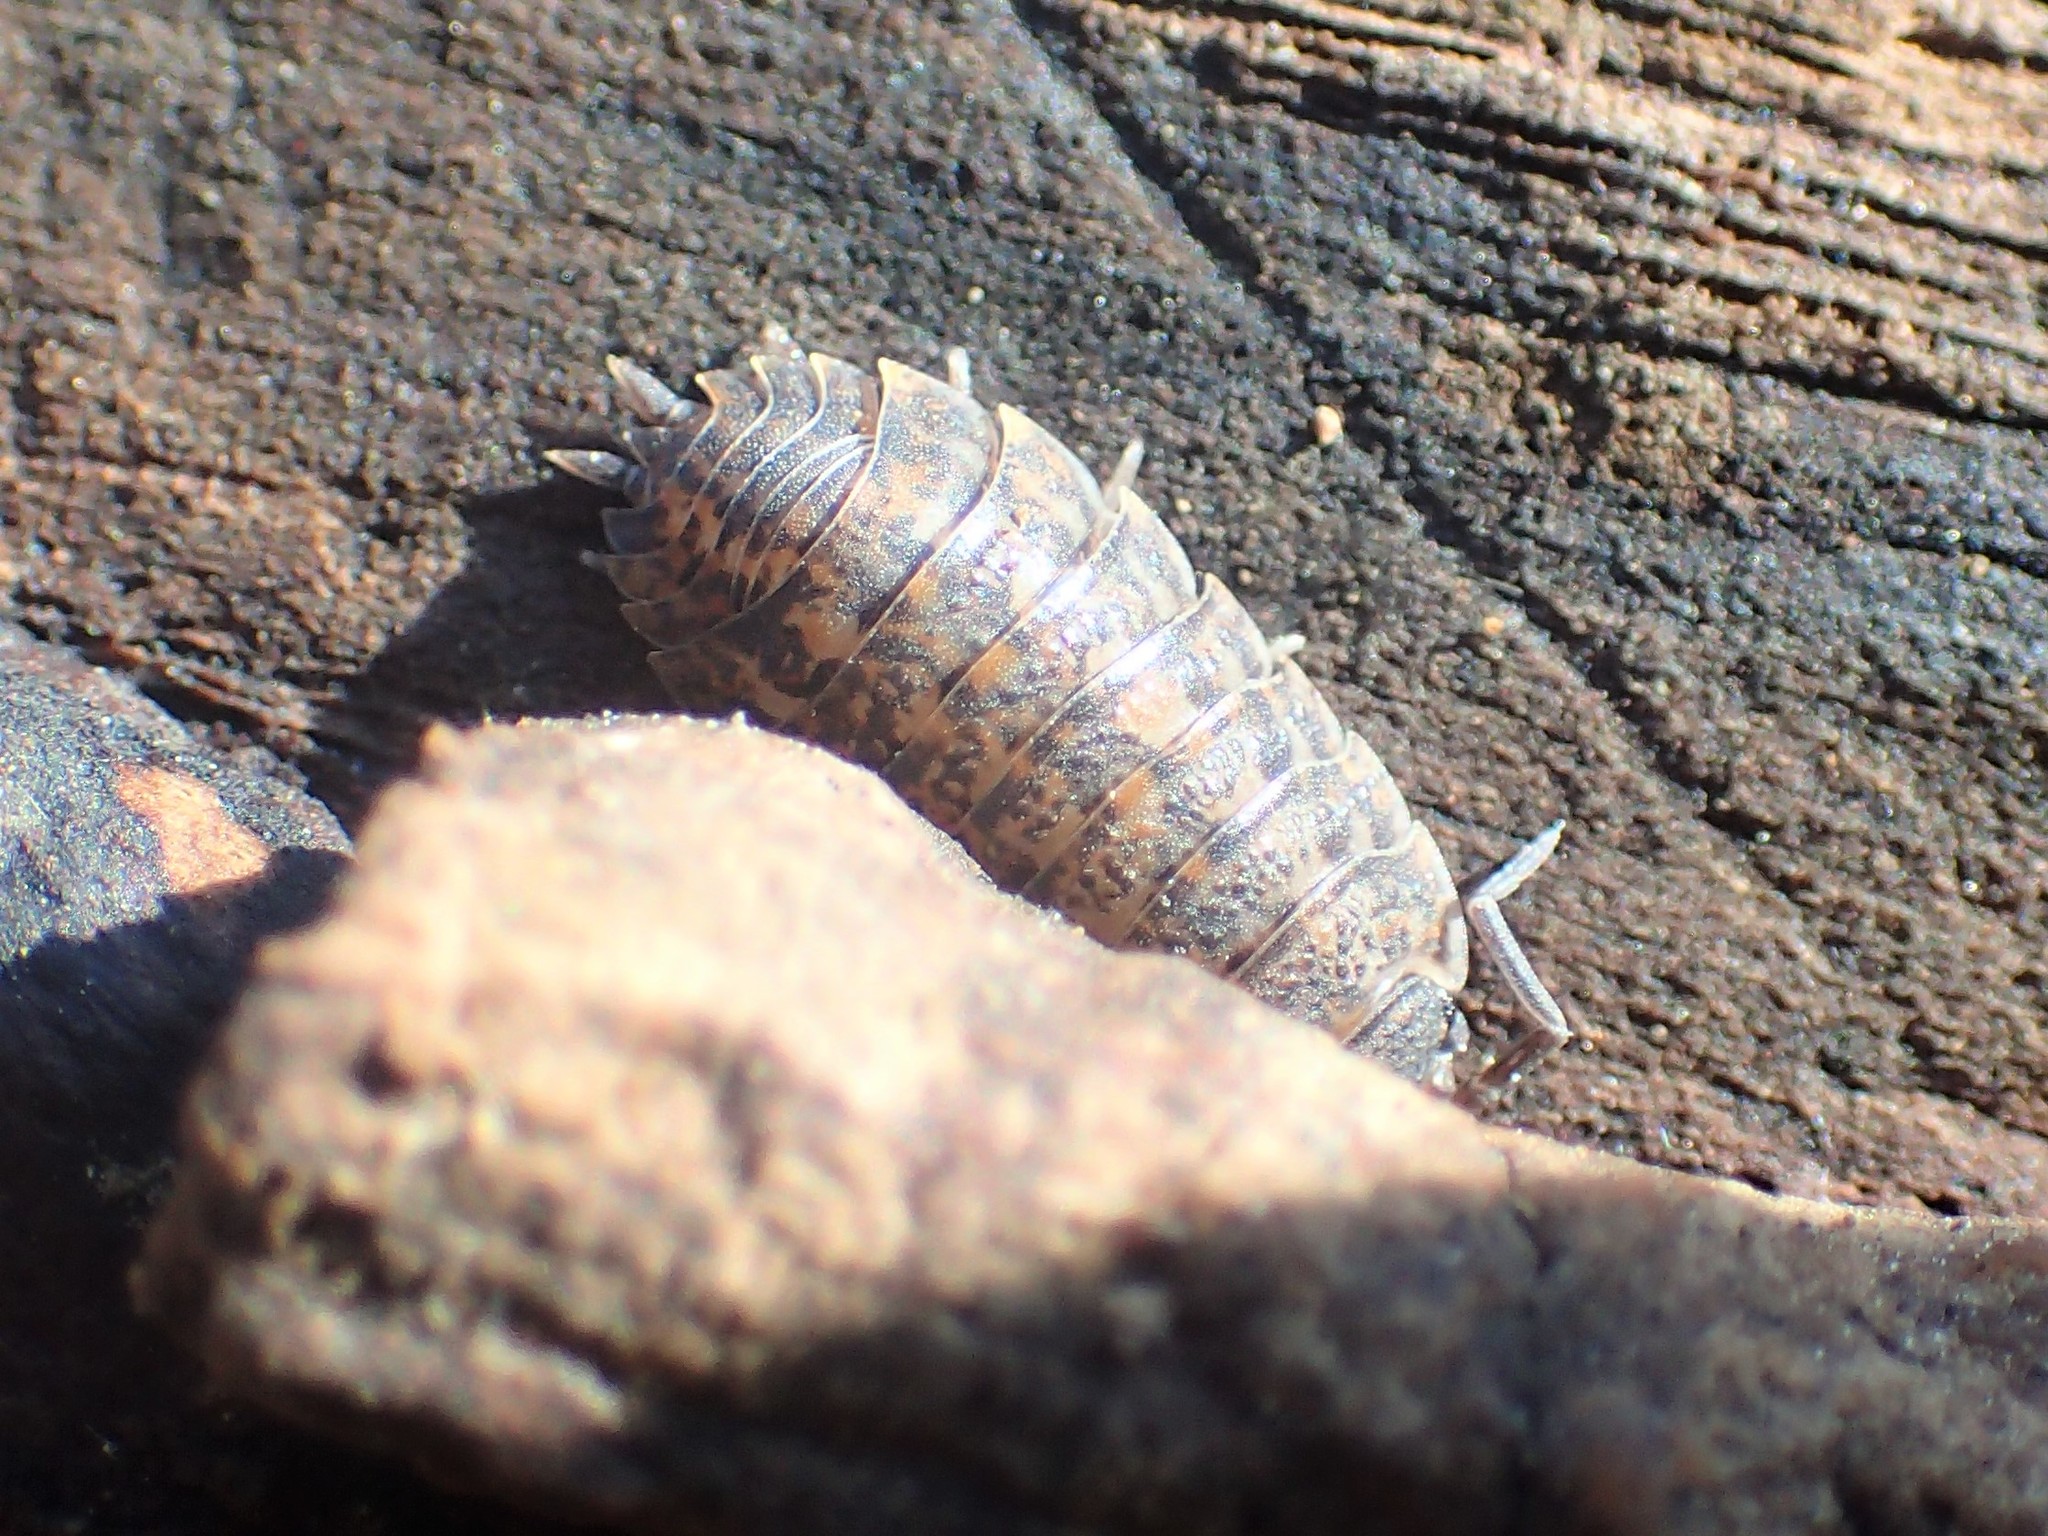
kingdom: Animalia
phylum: Arthropoda
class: Malacostraca
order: Isopoda
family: Trachelipodidae
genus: Trachelipus
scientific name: Trachelipus rathkii
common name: Isopod
